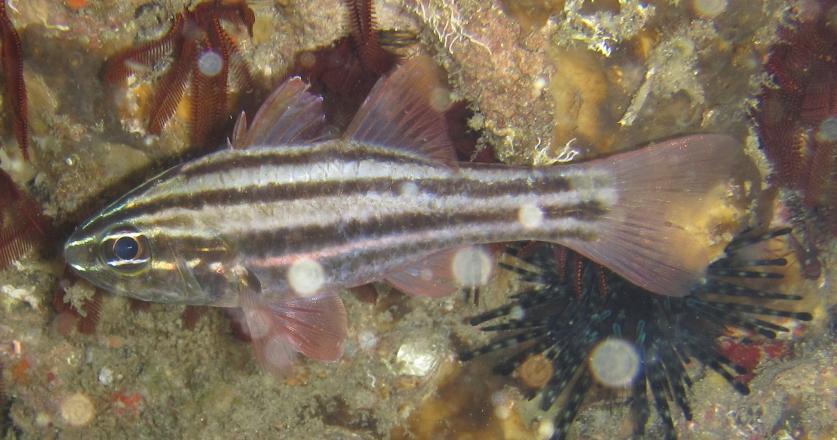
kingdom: Animalia
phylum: Chordata
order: Perciformes
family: Apogonidae
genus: Ostorhinchus
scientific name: Ostorhinchus taeniophorus
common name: Reef-flat cardinalfish
